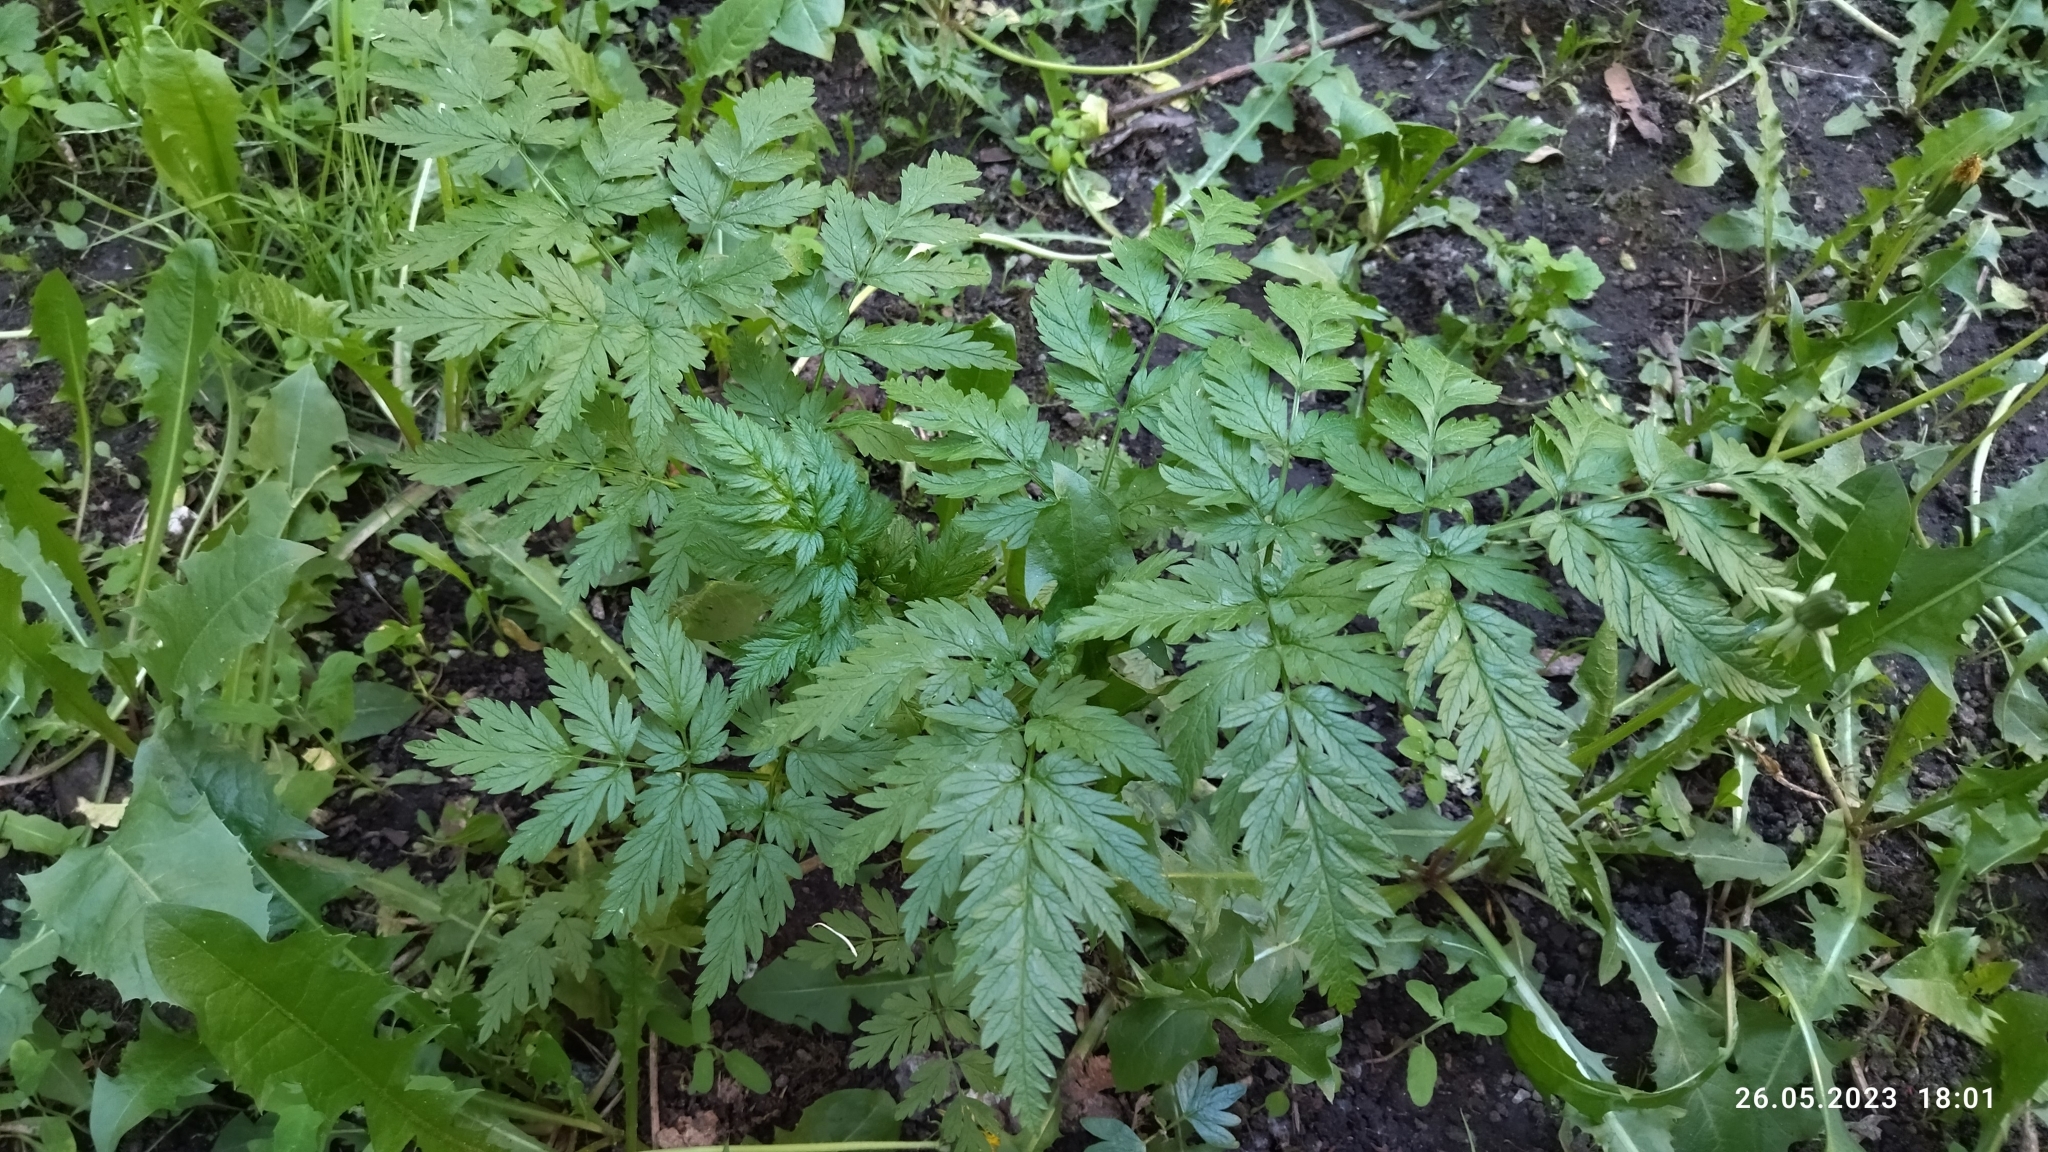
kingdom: Plantae
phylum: Tracheophyta
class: Magnoliopsida
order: Apiales
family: Apiaceae
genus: Anthriscus
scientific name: Anthriscus sylvestris
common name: Cow parsley
